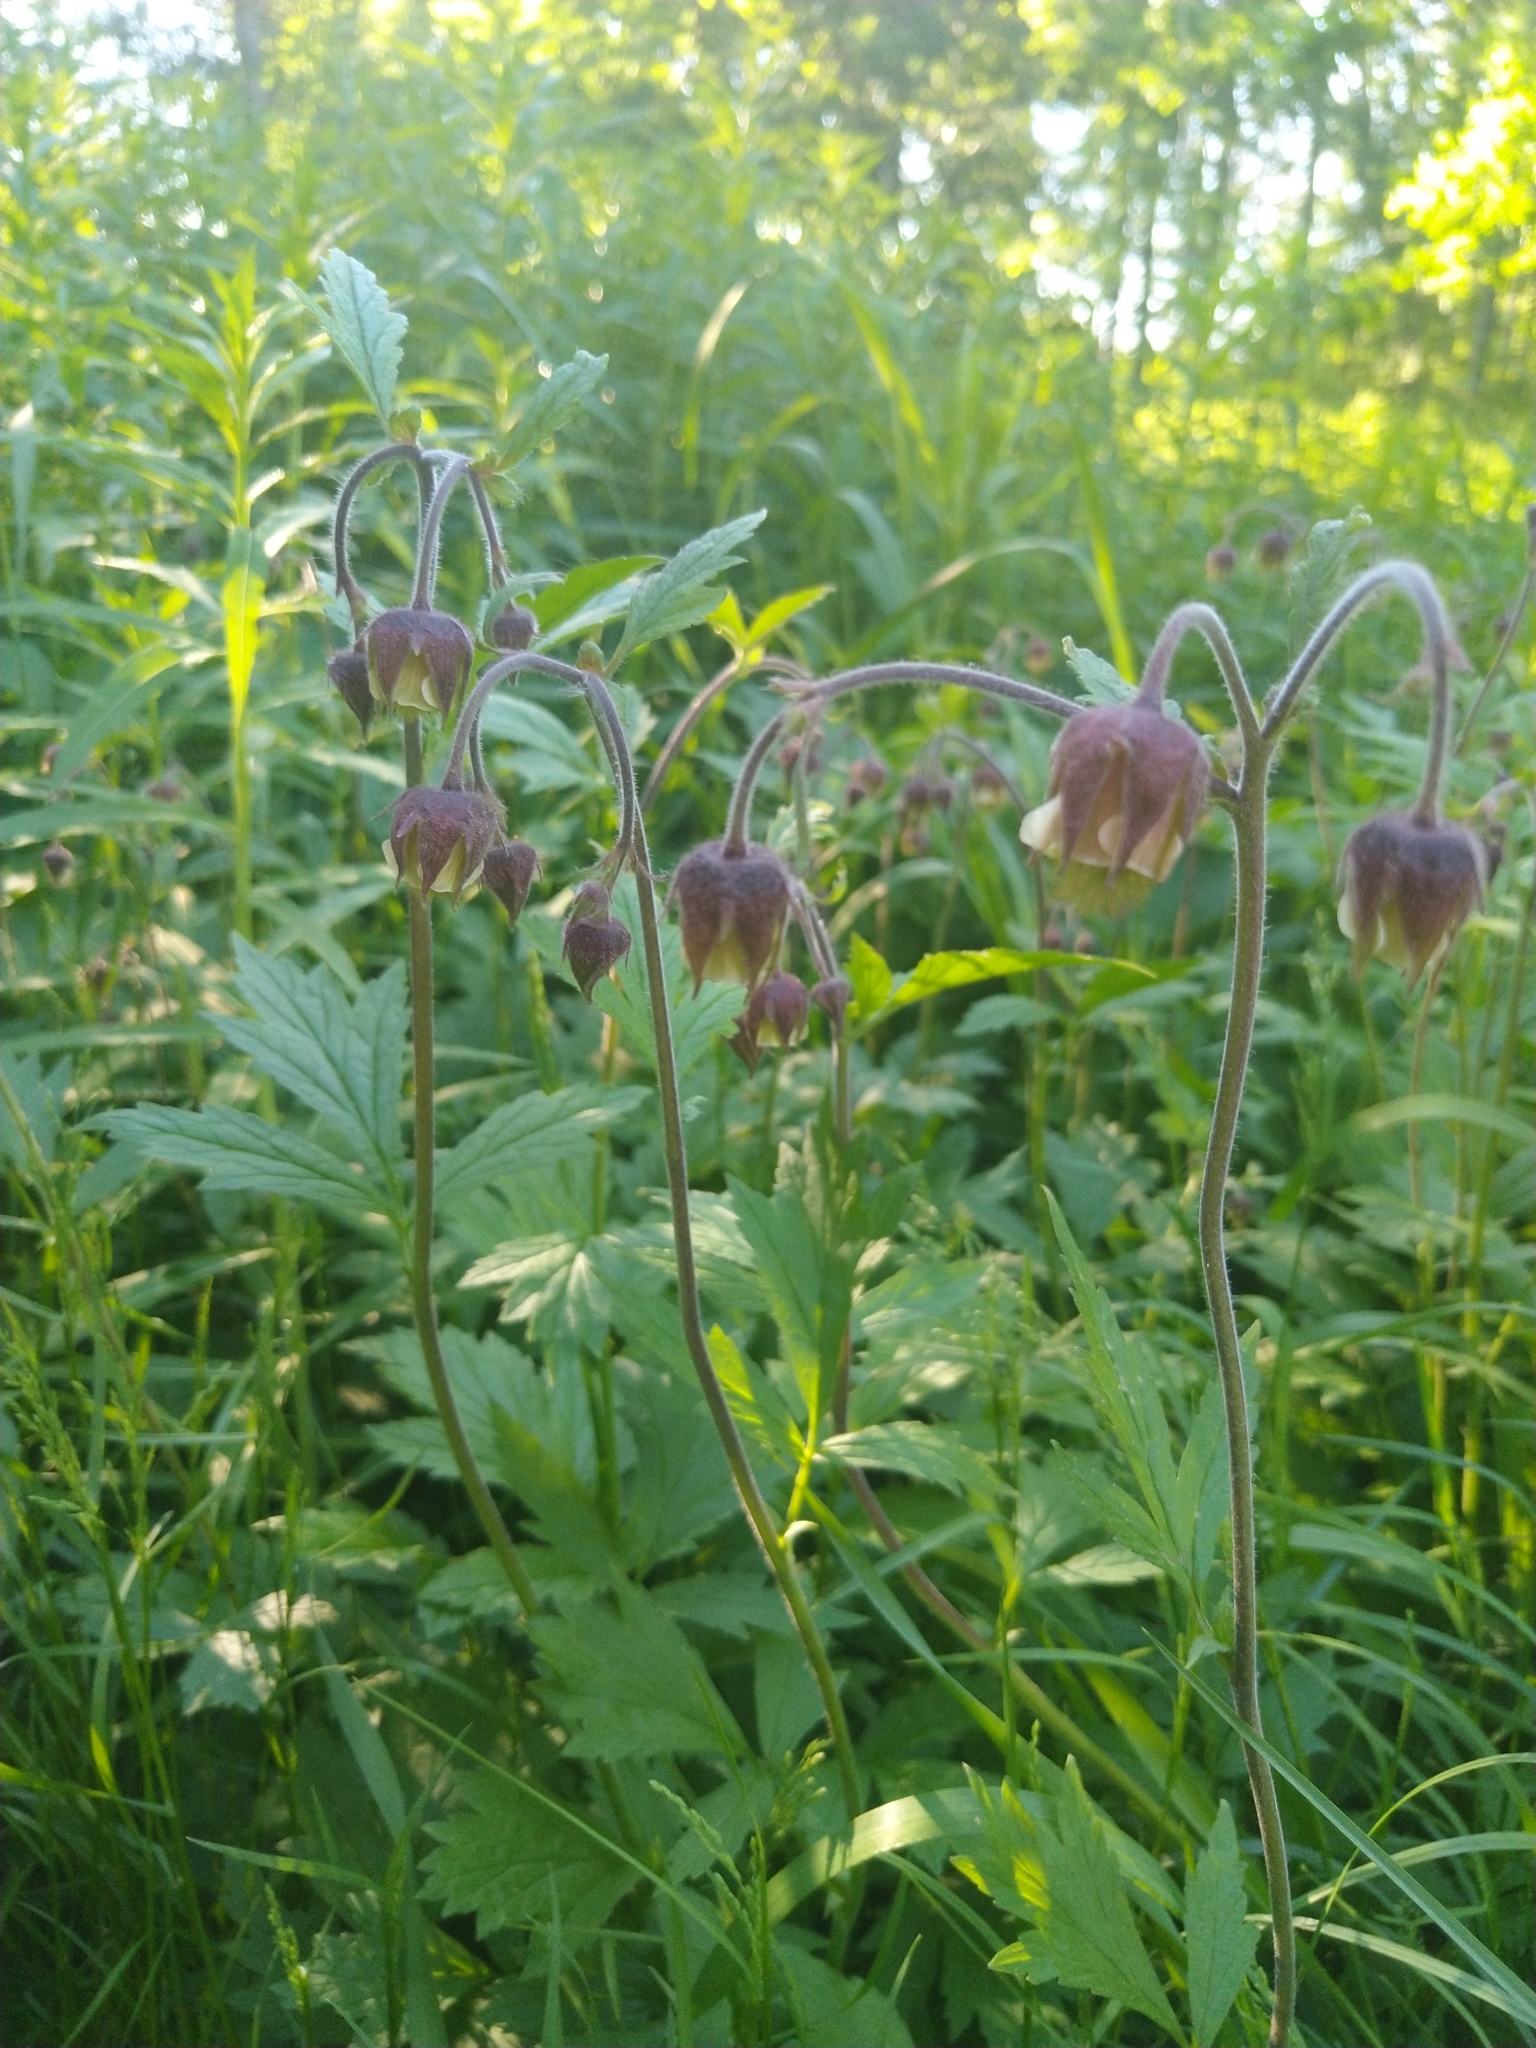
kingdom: Plantae
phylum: Tracheophyta
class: Magnoliopsida
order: Rosales
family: Rosaceae
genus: Geum
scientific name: Geum rivale
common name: Water avens
